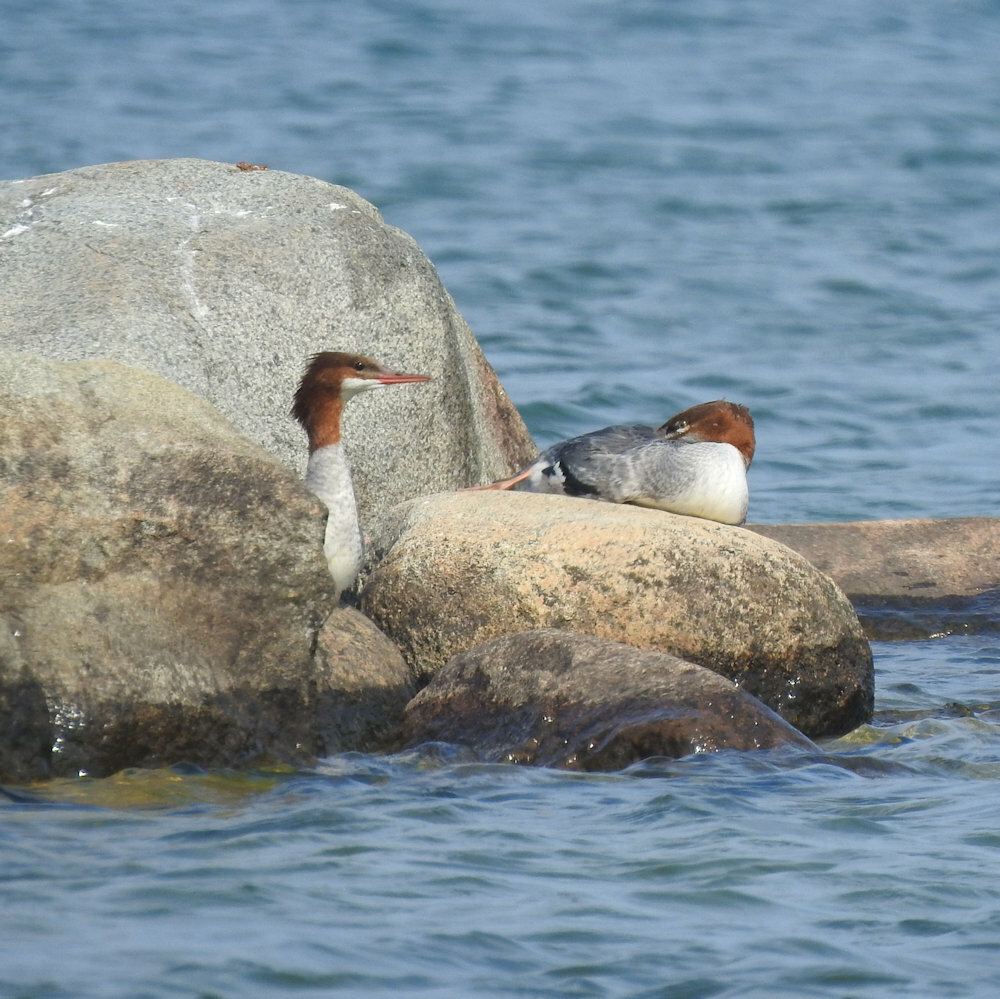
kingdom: Animalia
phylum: Chordata
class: Aves
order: Anseriformes
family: Anatidae
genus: Mergus
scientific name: Mergus merganser
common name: Common merganser
